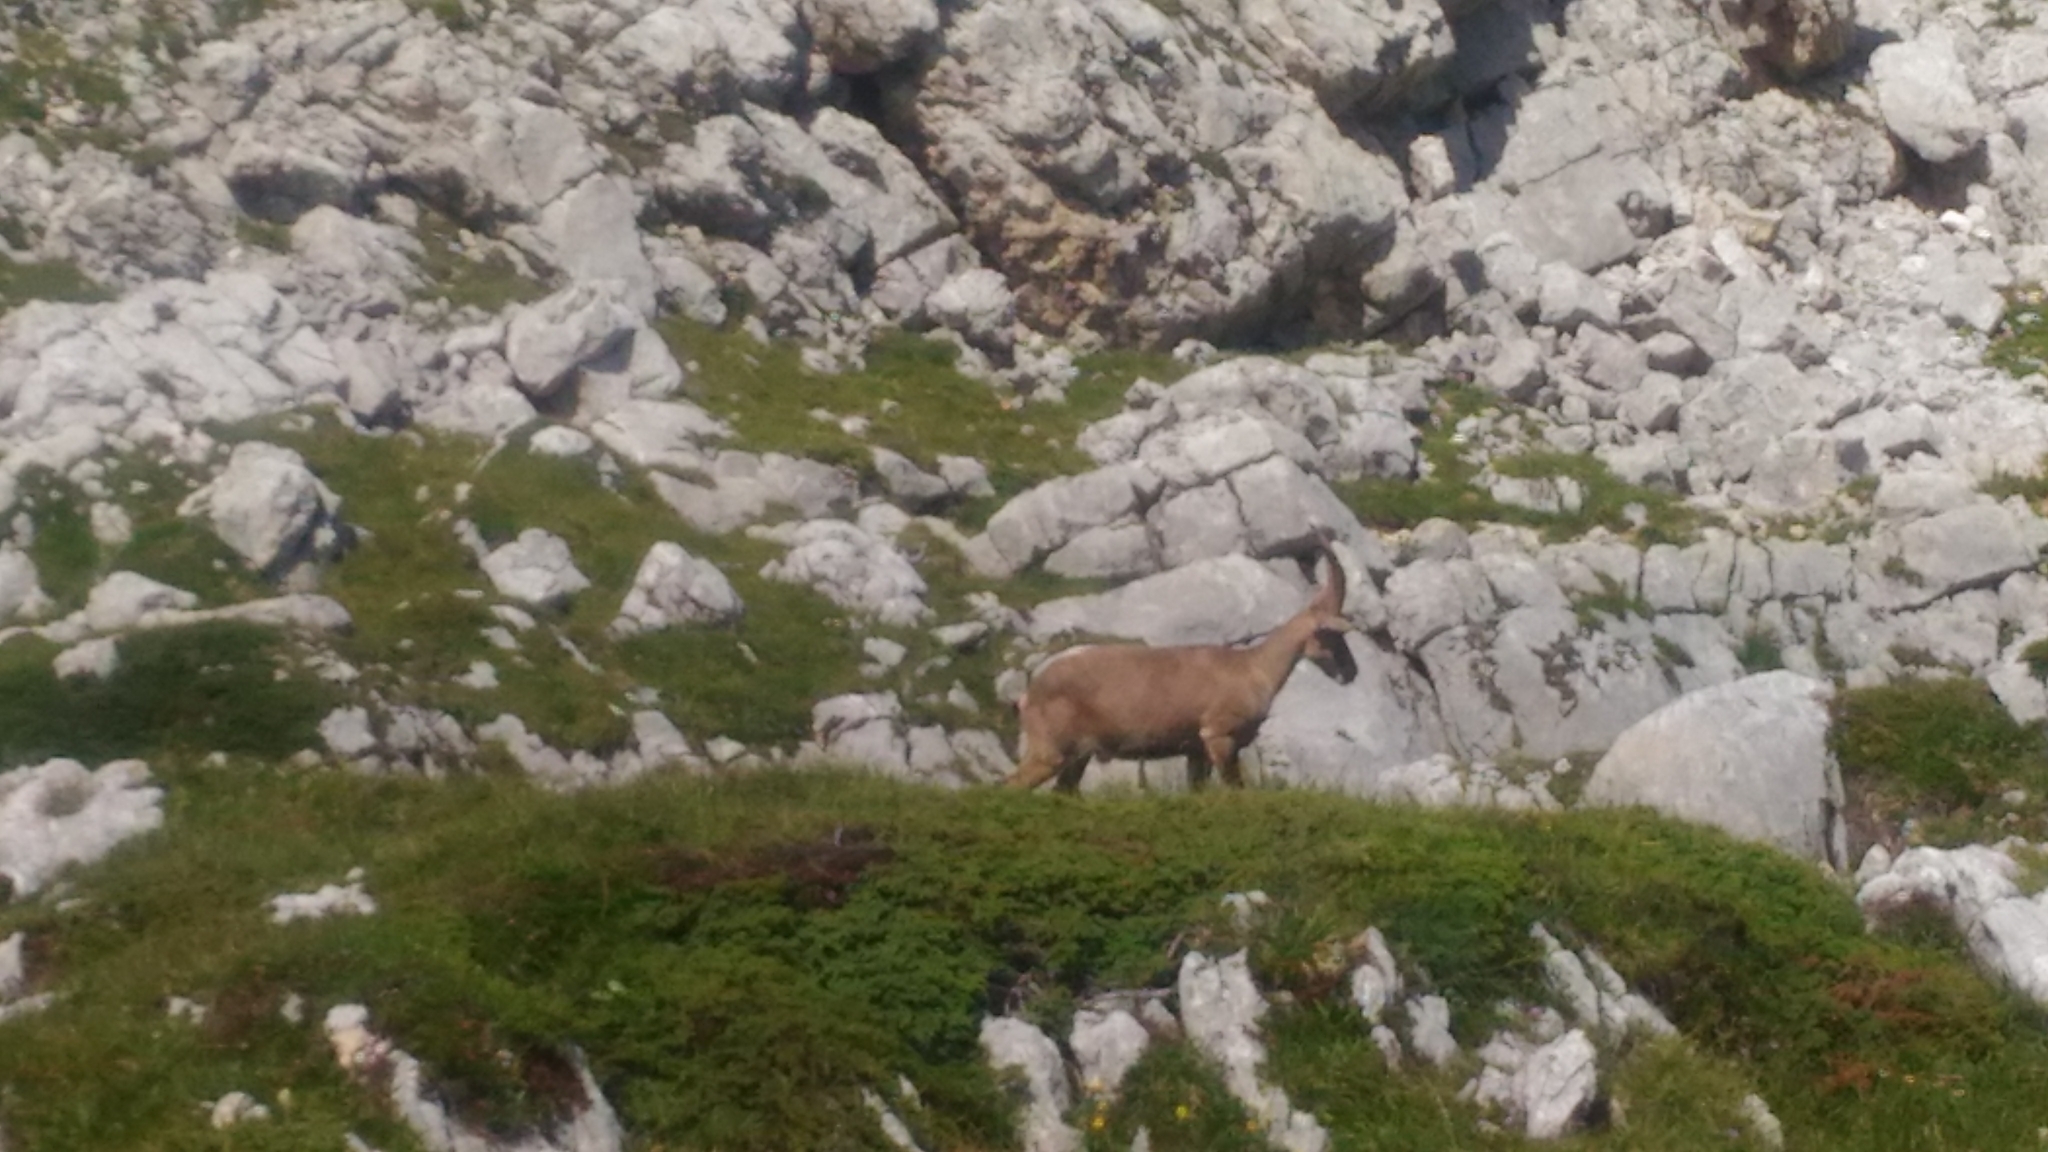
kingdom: Animalia
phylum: Chordata
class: Mammalia
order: Artiodactyla
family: Bovidae
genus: Capra
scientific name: Capra ibex
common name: Alpine ibex
